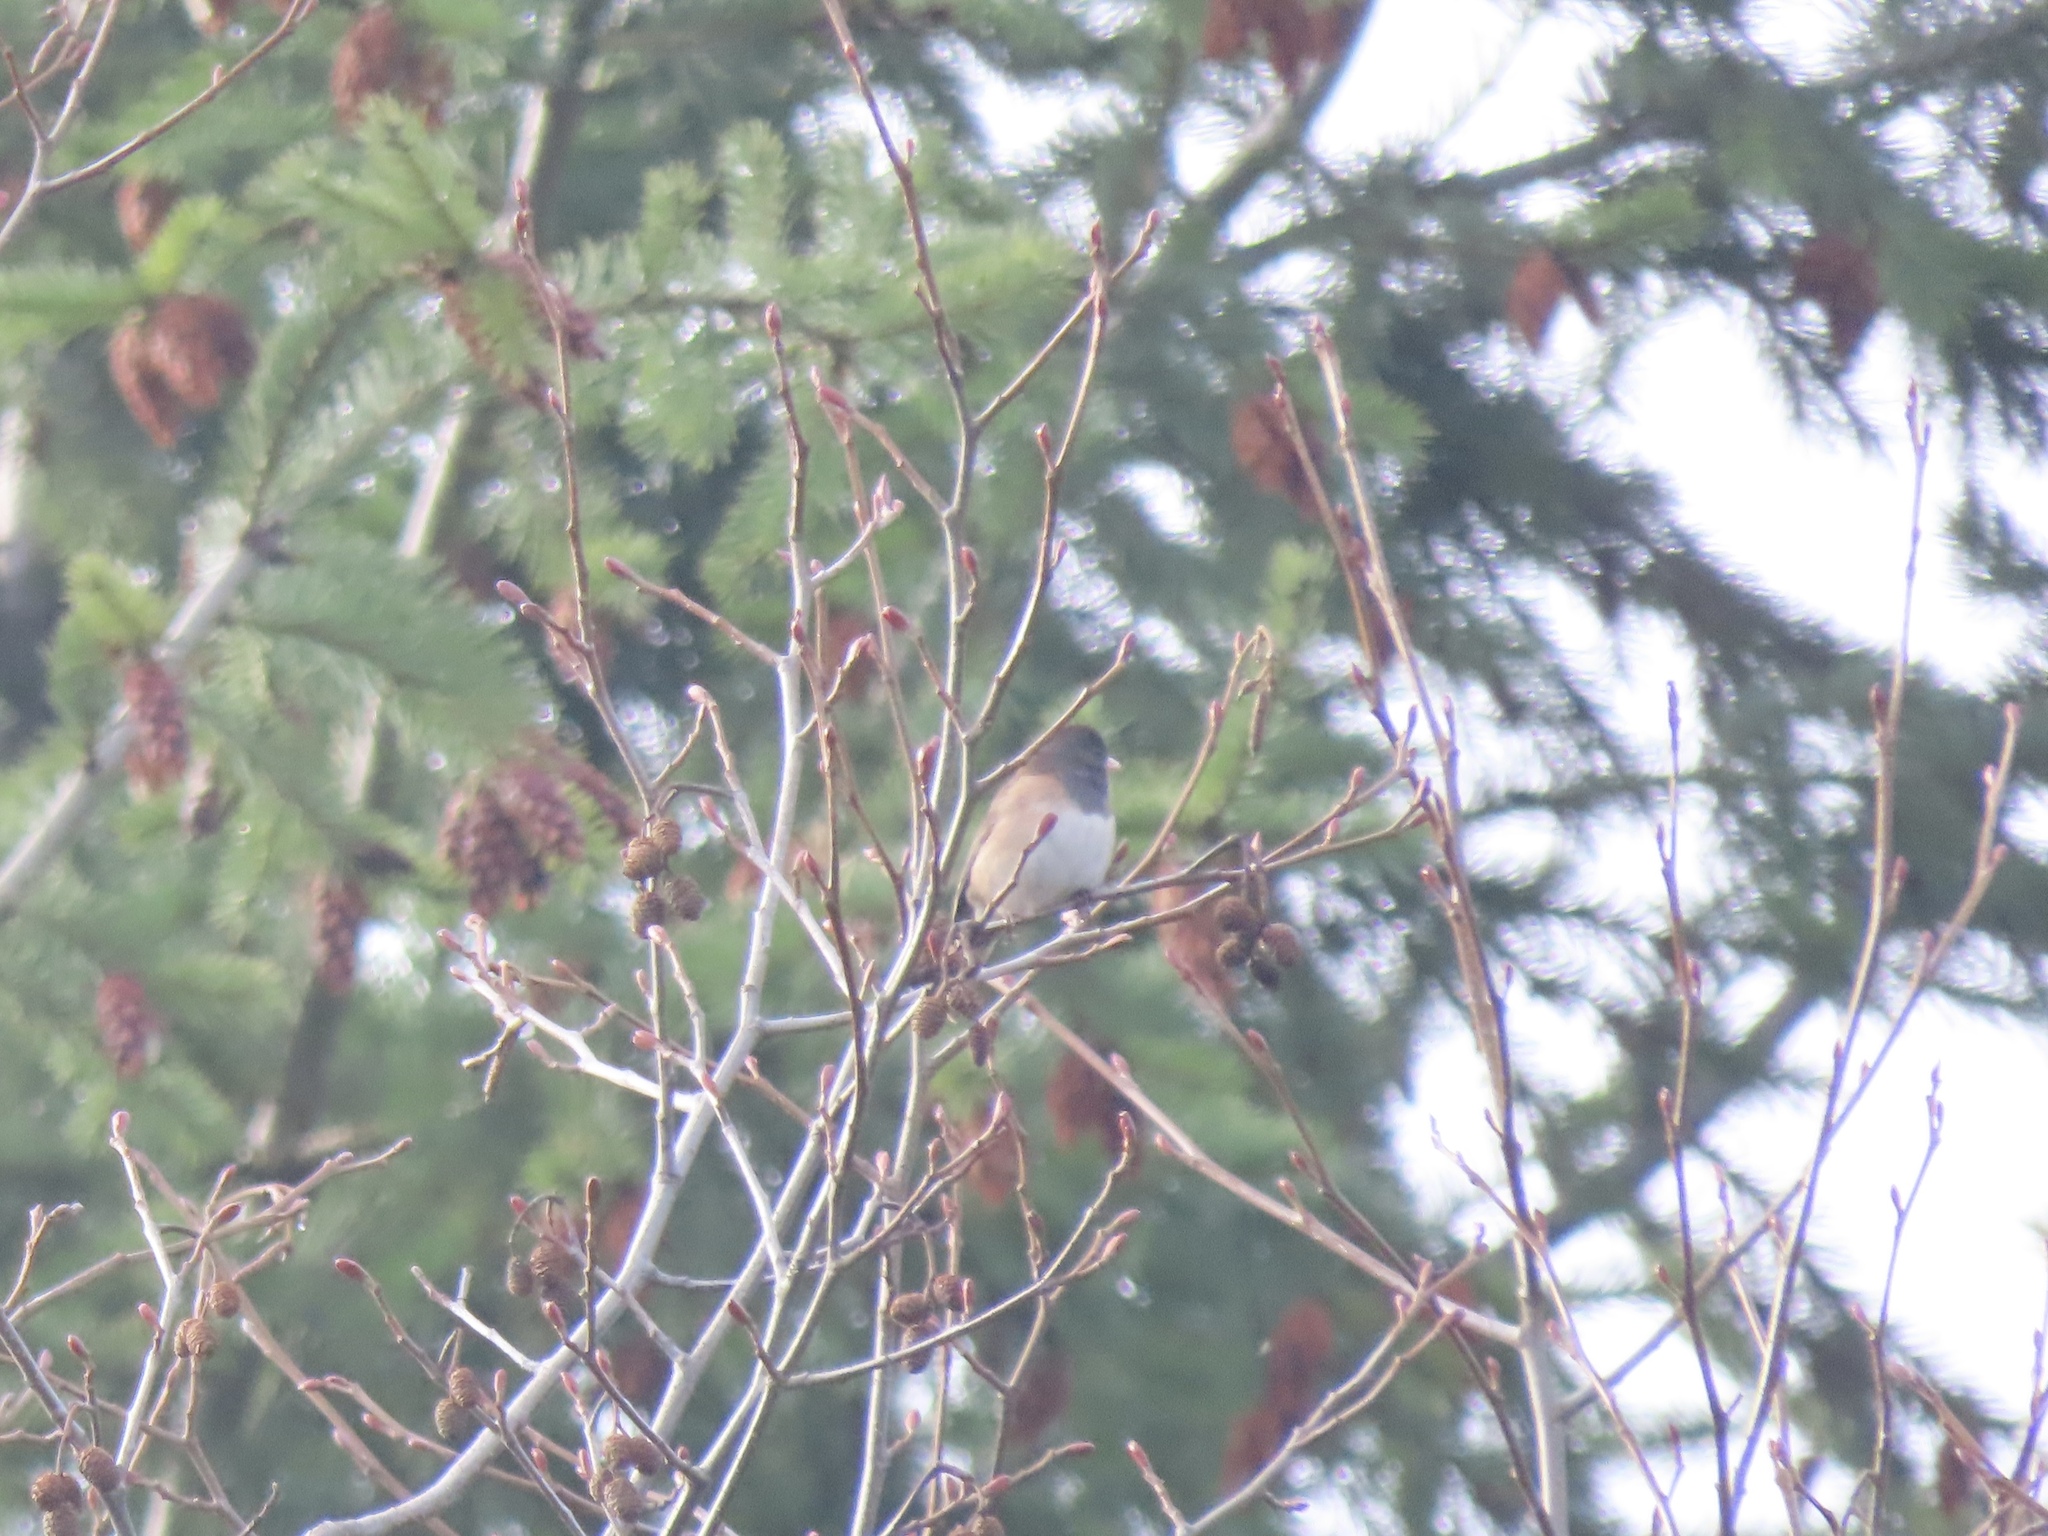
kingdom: Animalia
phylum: Chordata
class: Aves
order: Passeriformes
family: Passerellidae
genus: Junco
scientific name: Junco hyemalis
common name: Dark-eyed junco
